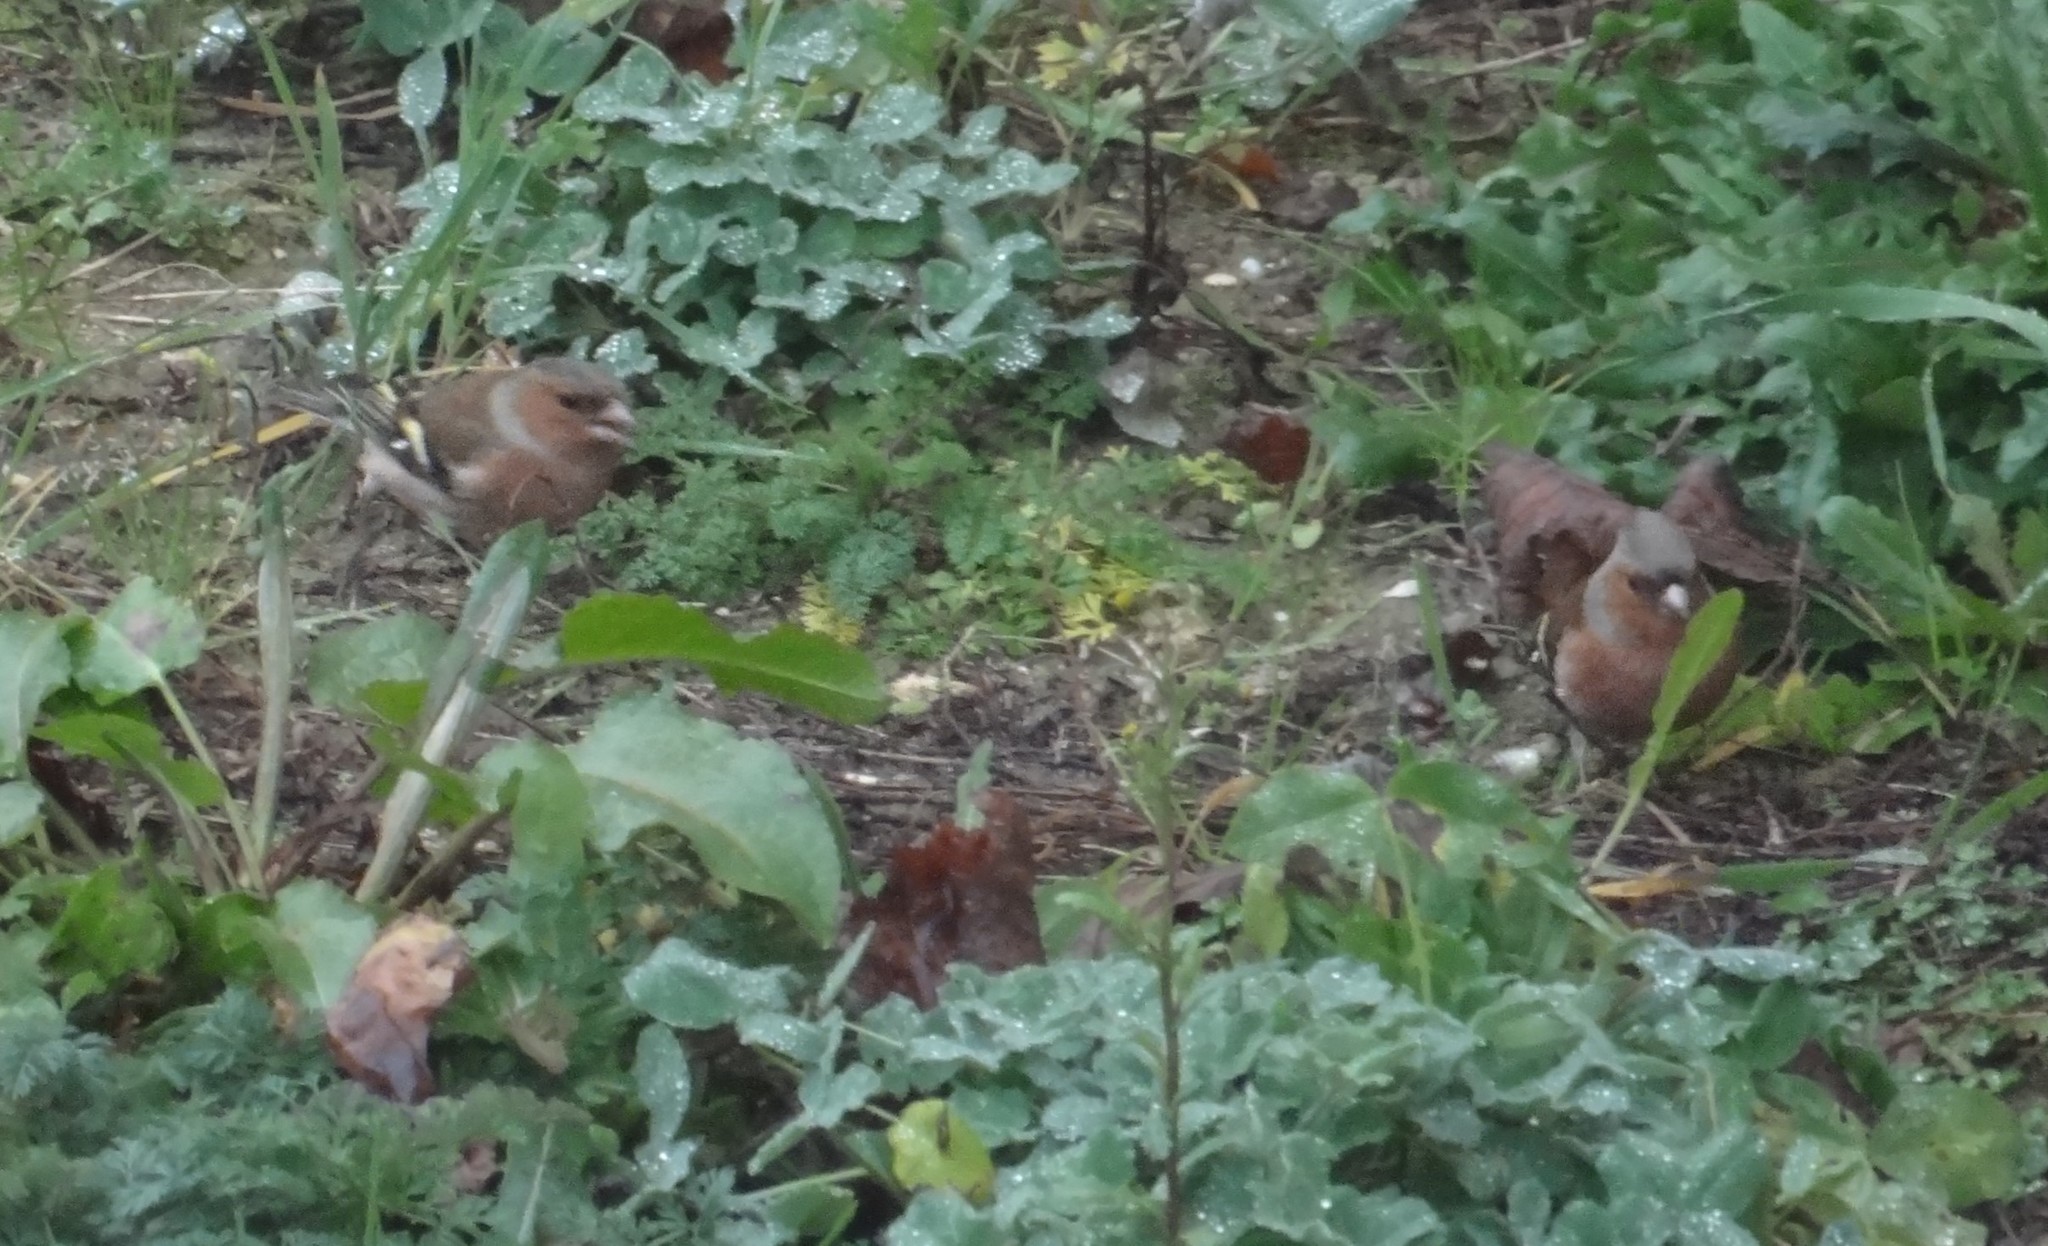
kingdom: Animalia
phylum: Chordata
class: Aves
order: Passeriformes
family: Fringillidae
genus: Fringilla
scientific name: Fringilla coelebs
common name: Common chaffinch
